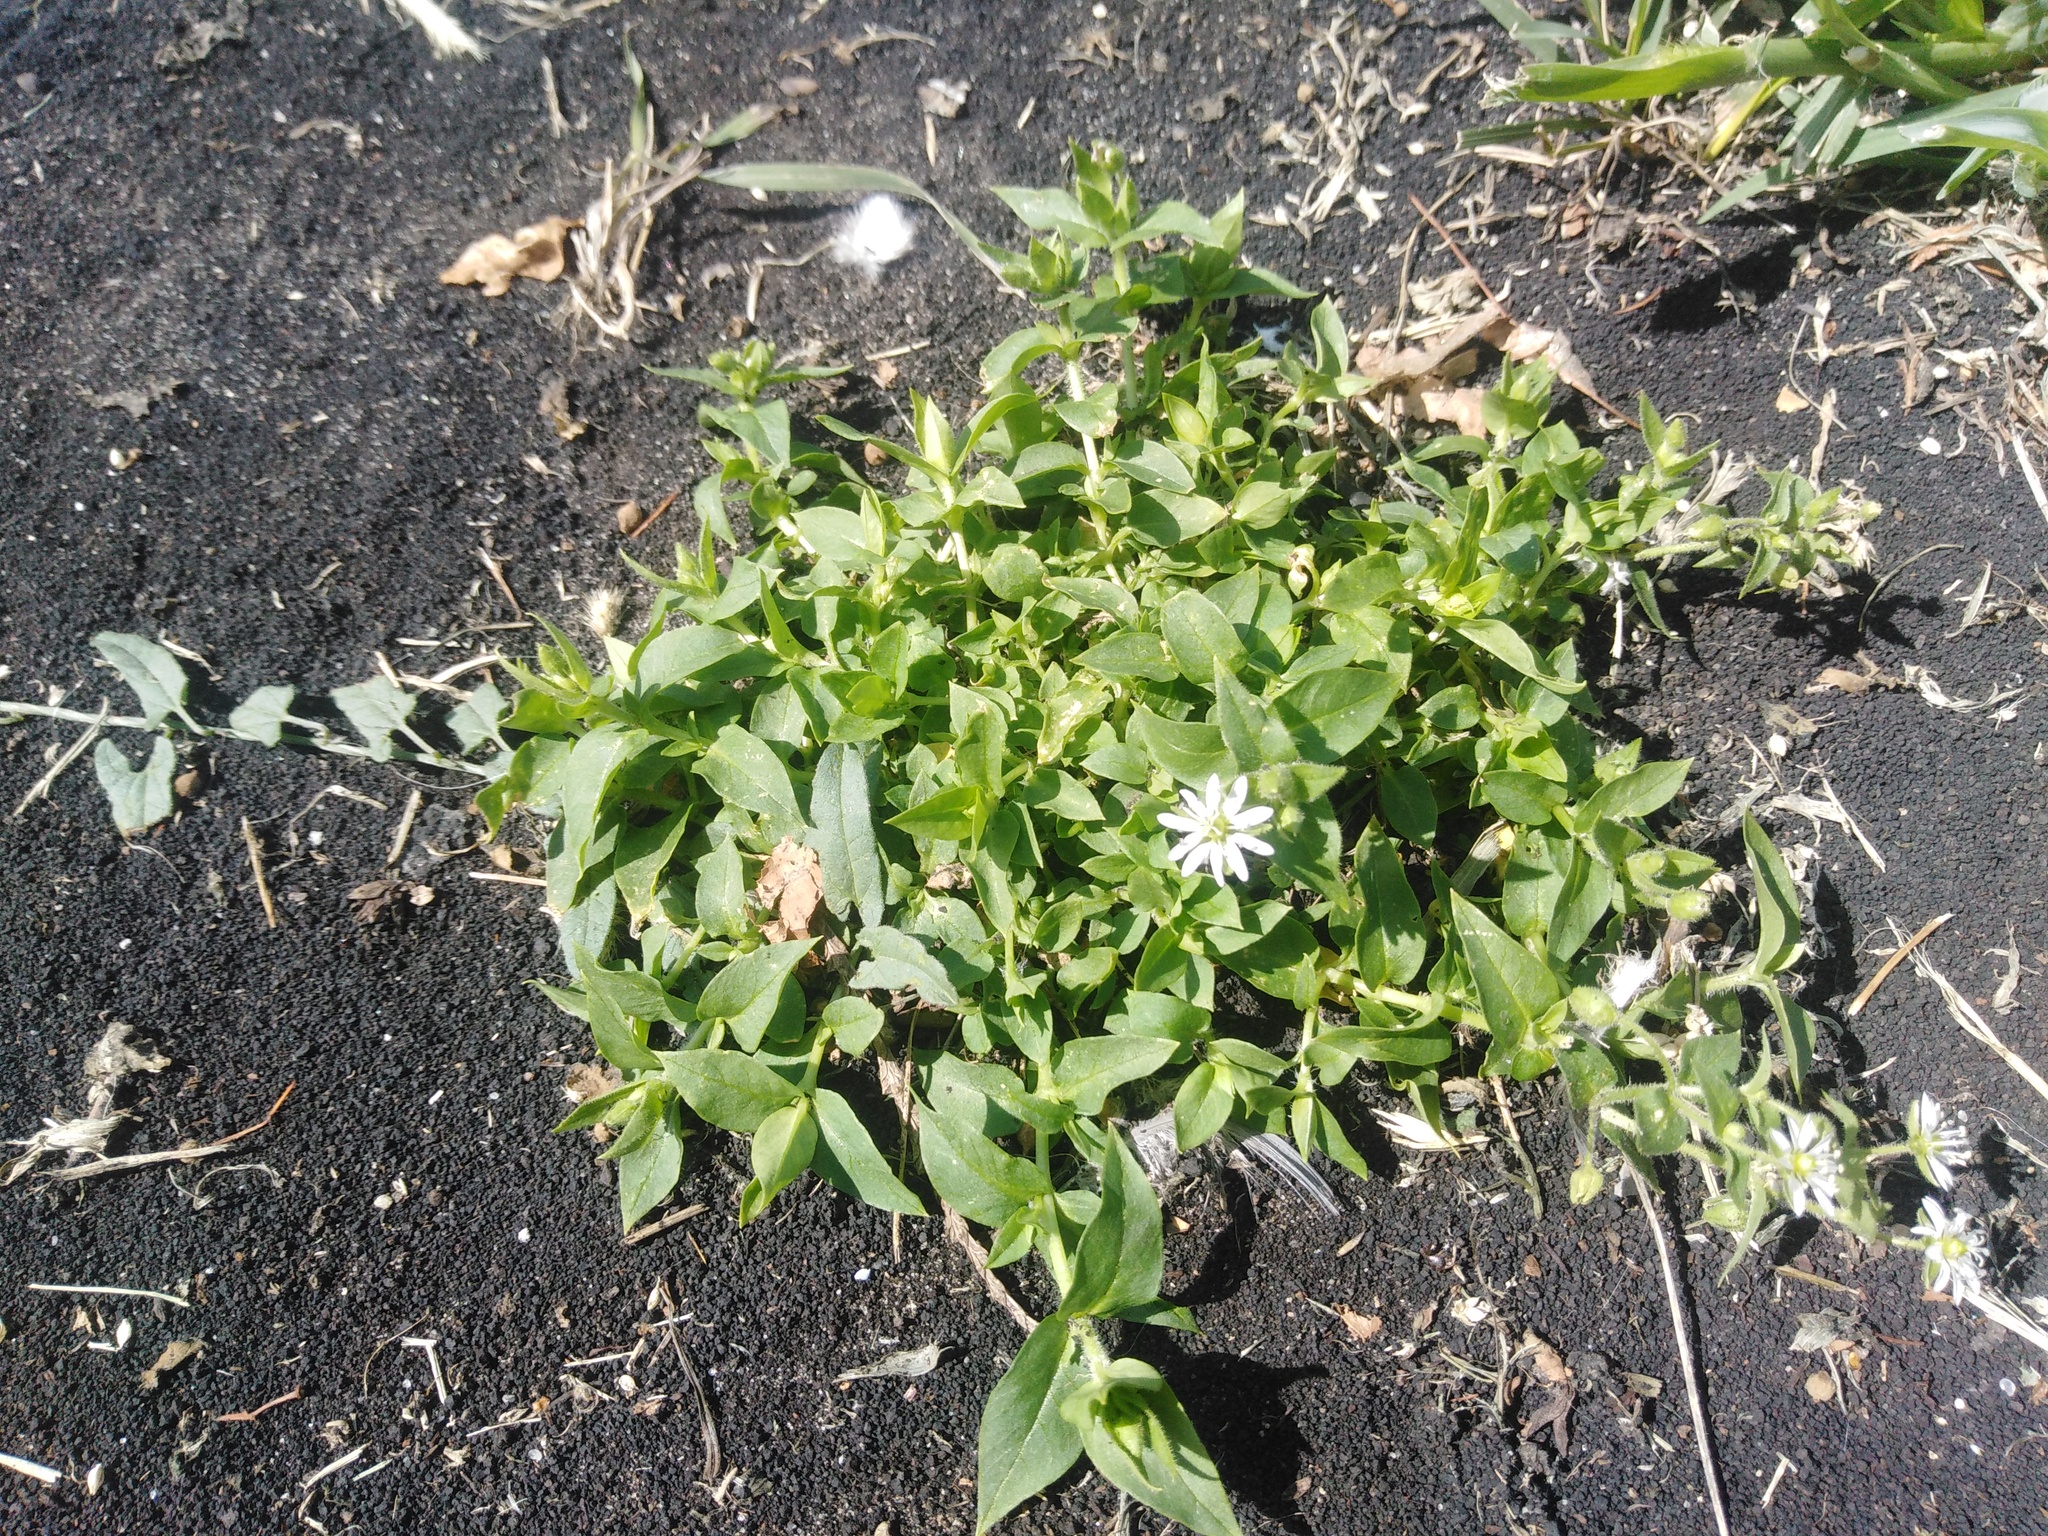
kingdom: Plantae
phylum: Tracheophyta
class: Magnoliopsida
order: Caryophyllales
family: Caryophyllaceae
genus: Stellaria
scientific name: Stellaria aquatica
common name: Water chickweed
